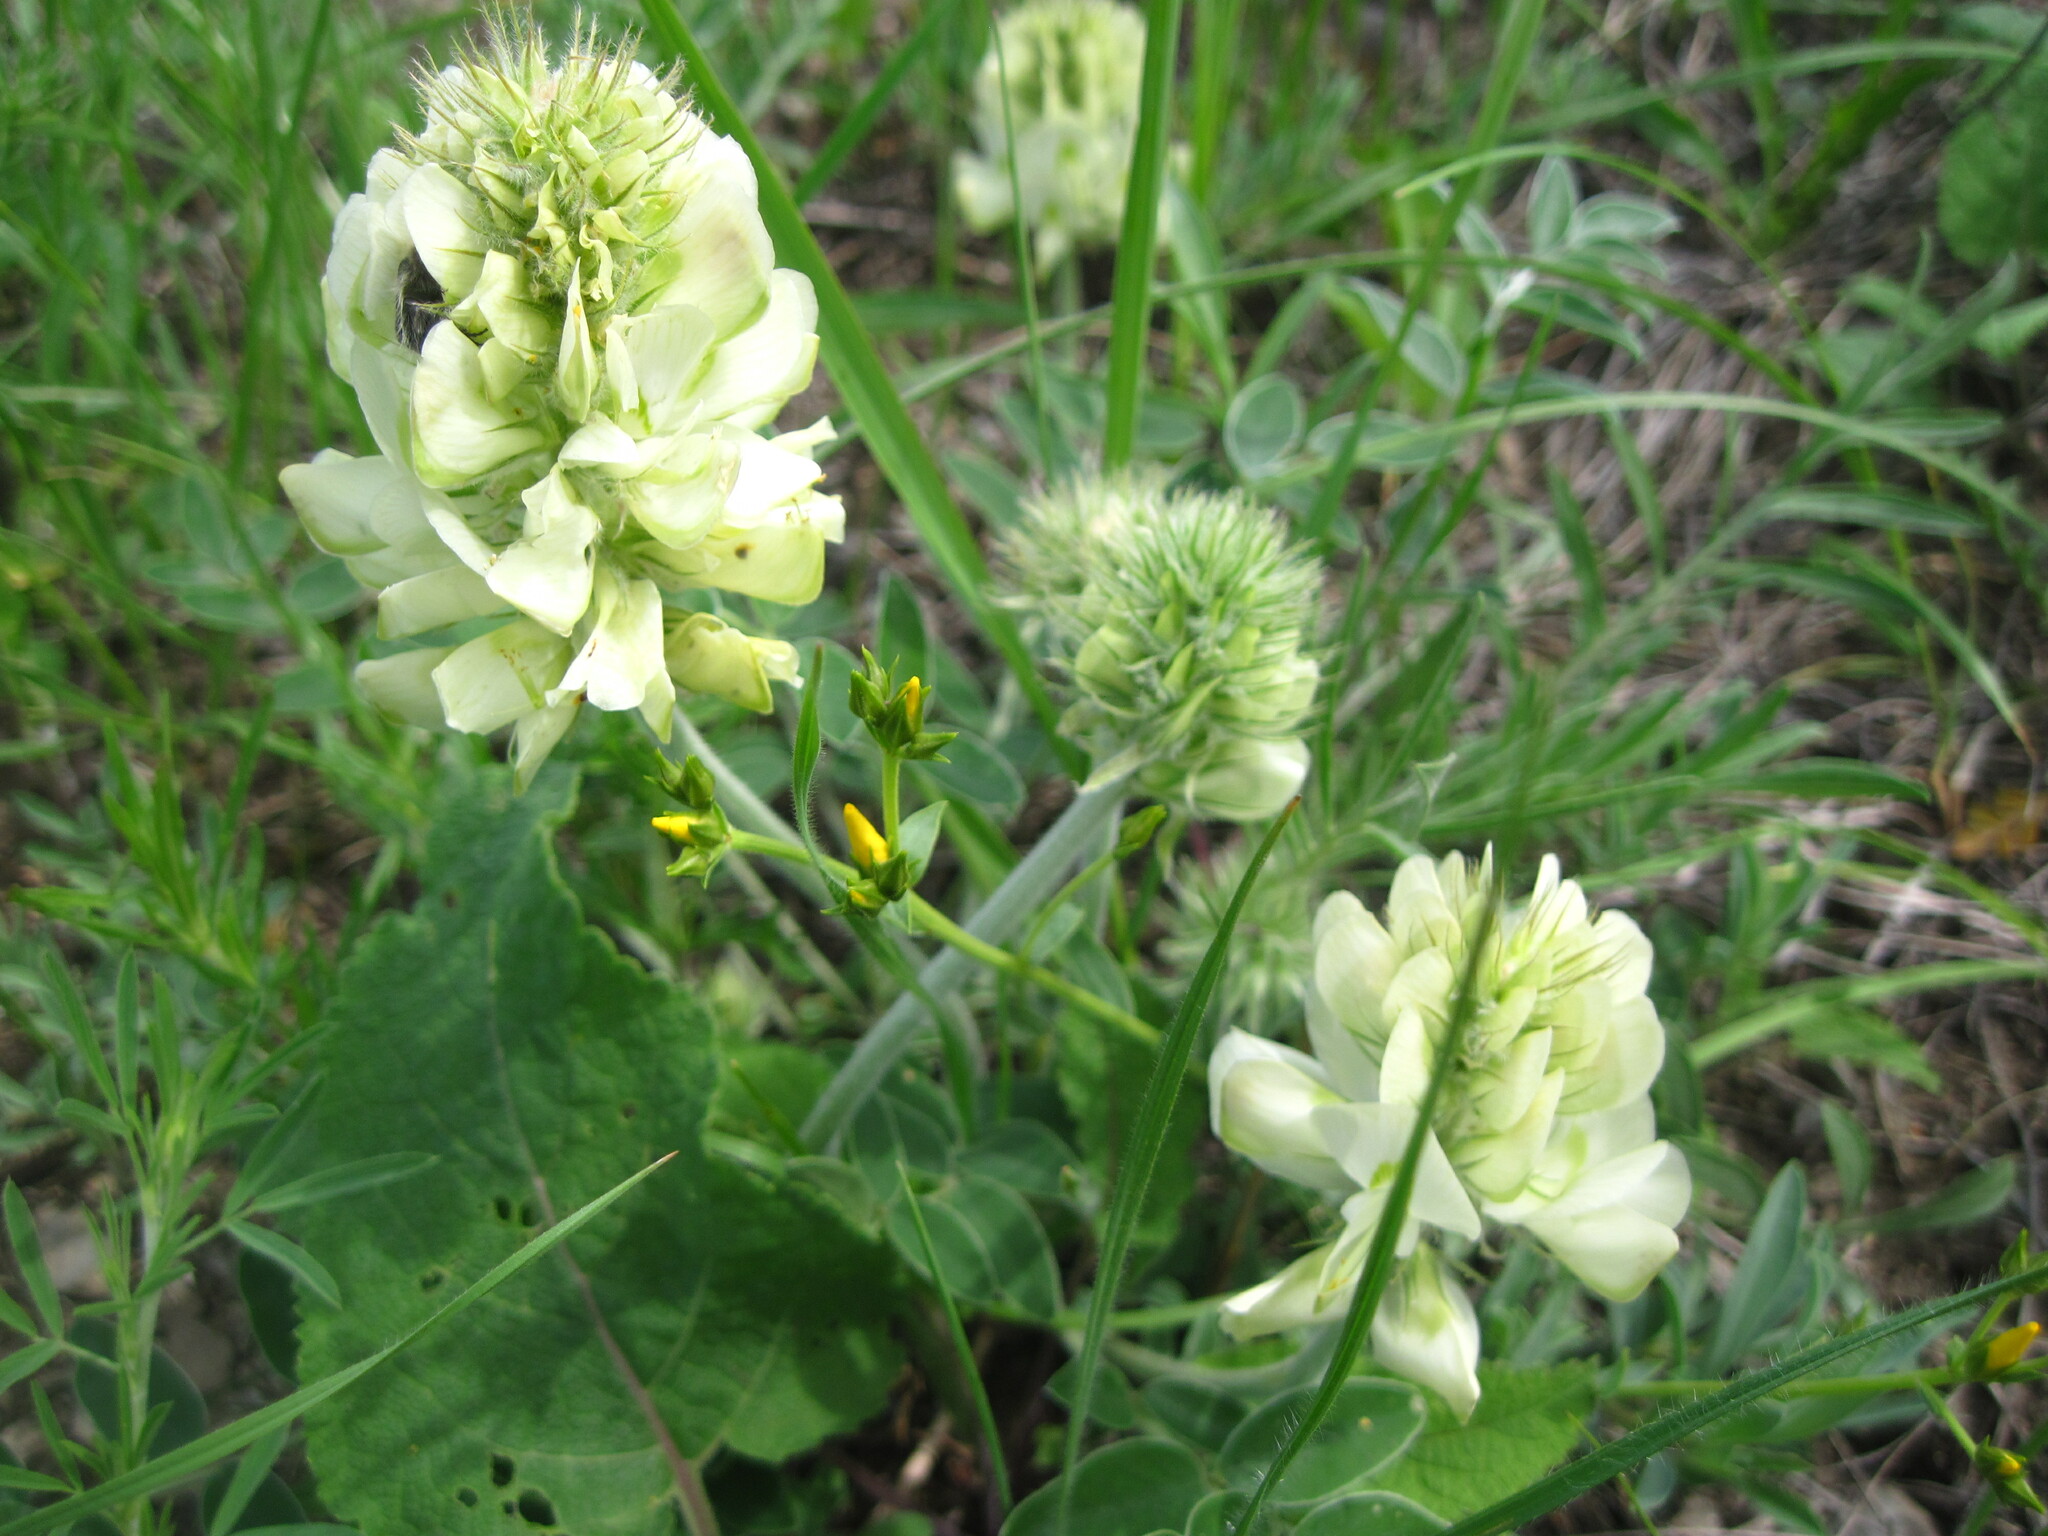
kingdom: Plantae
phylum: Tracheophyta
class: Magnoliopsida
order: Fabales
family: Fabaceae
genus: Hedysarum
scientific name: Hedysarum grandiflorum
